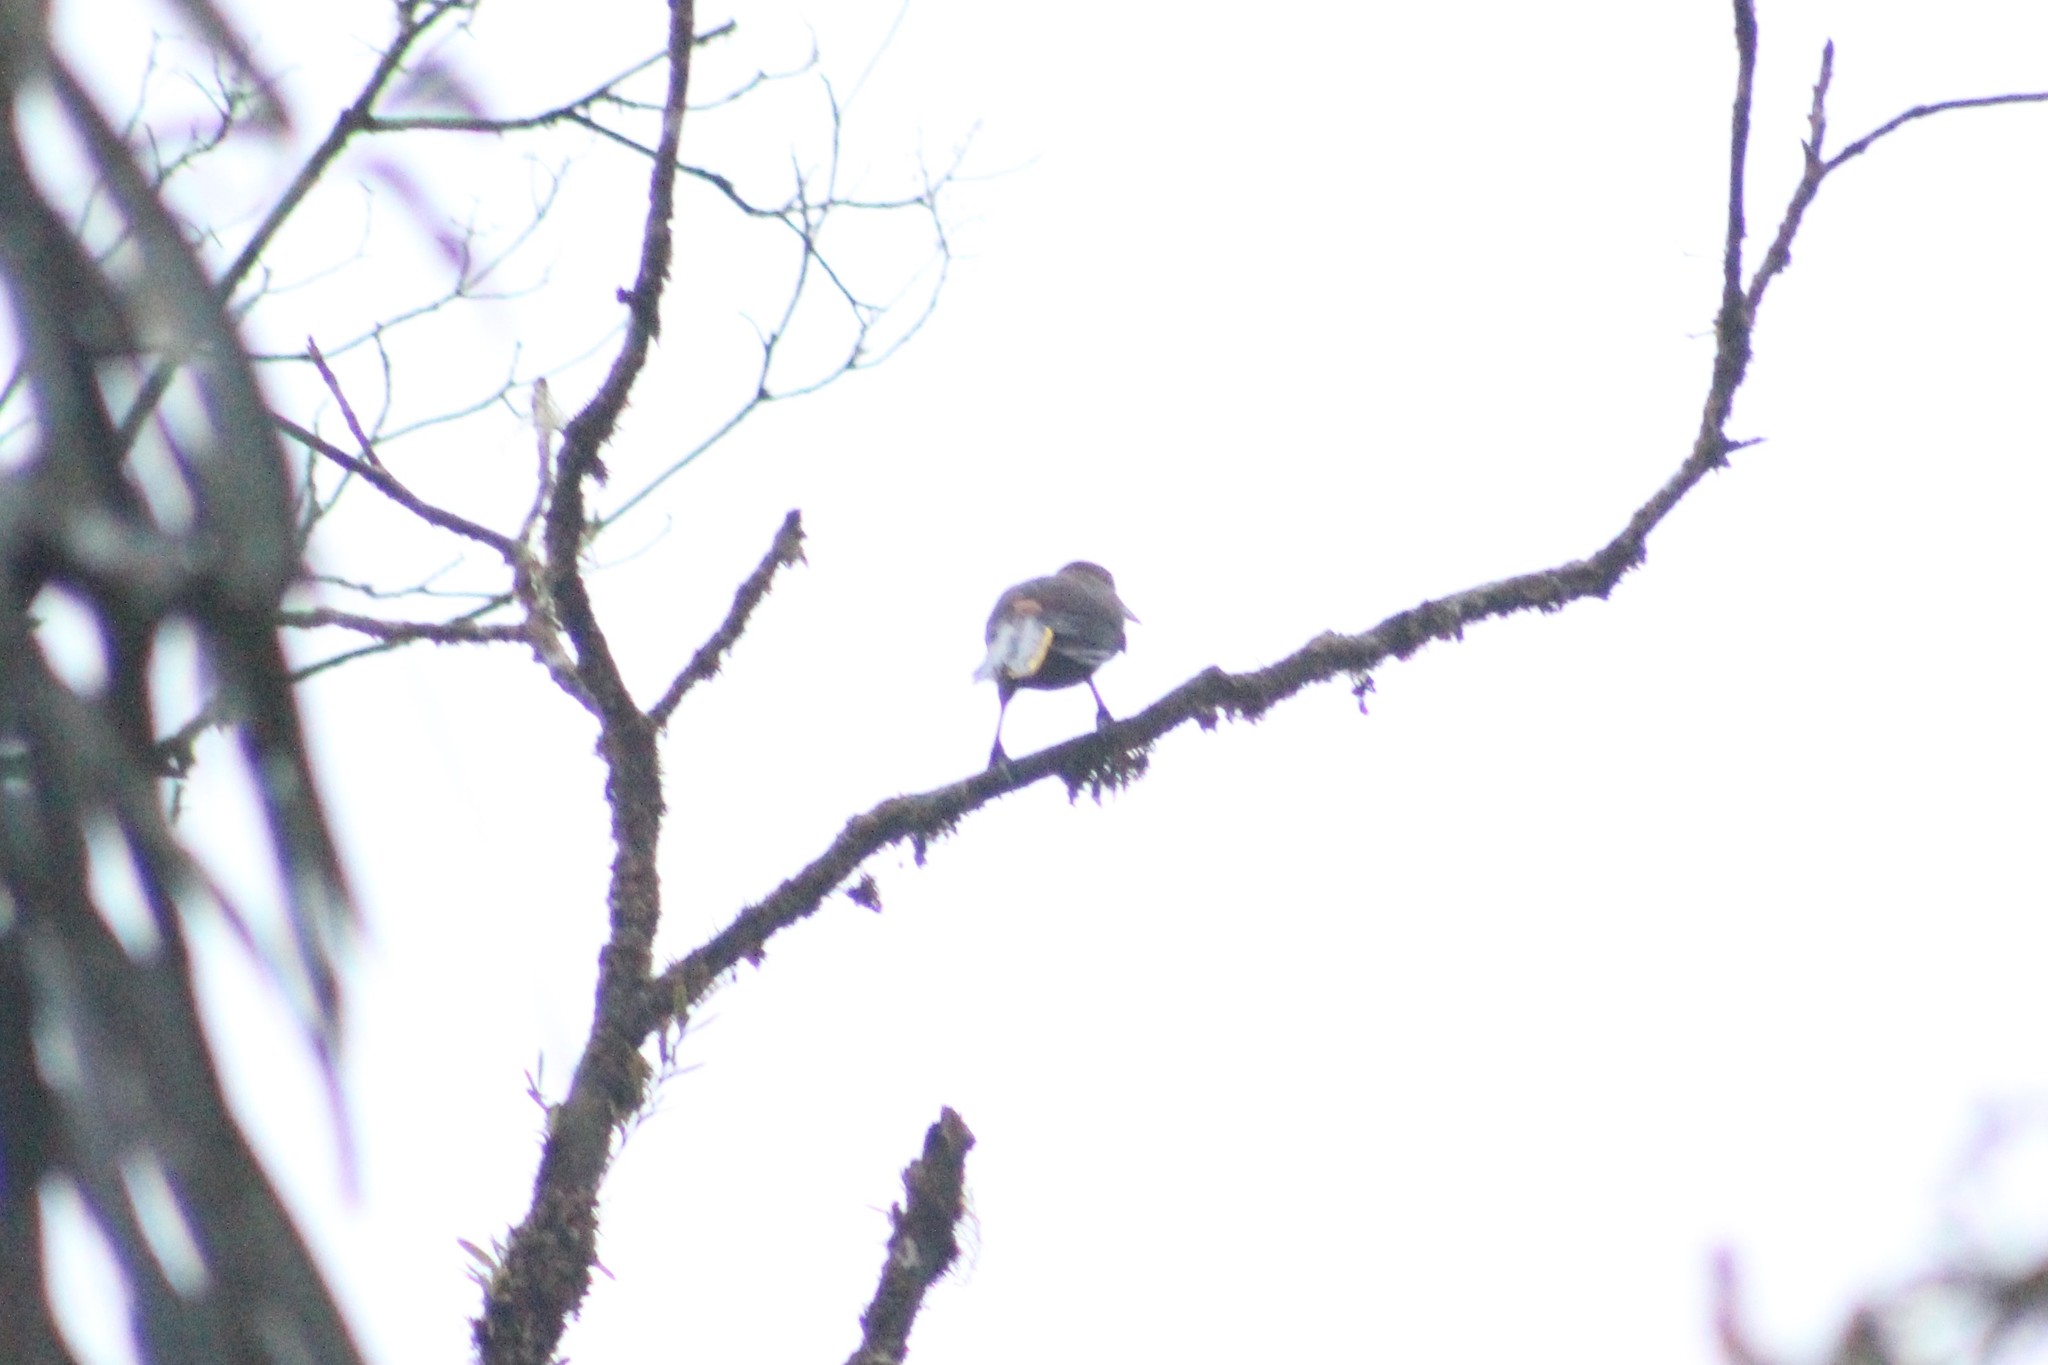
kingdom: Animalia
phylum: Chordata
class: Aves
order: Passeriformes
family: Icteridae
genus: Psarocolius
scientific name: Psarocolius angustifrons
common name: Russet-backed oropendola
